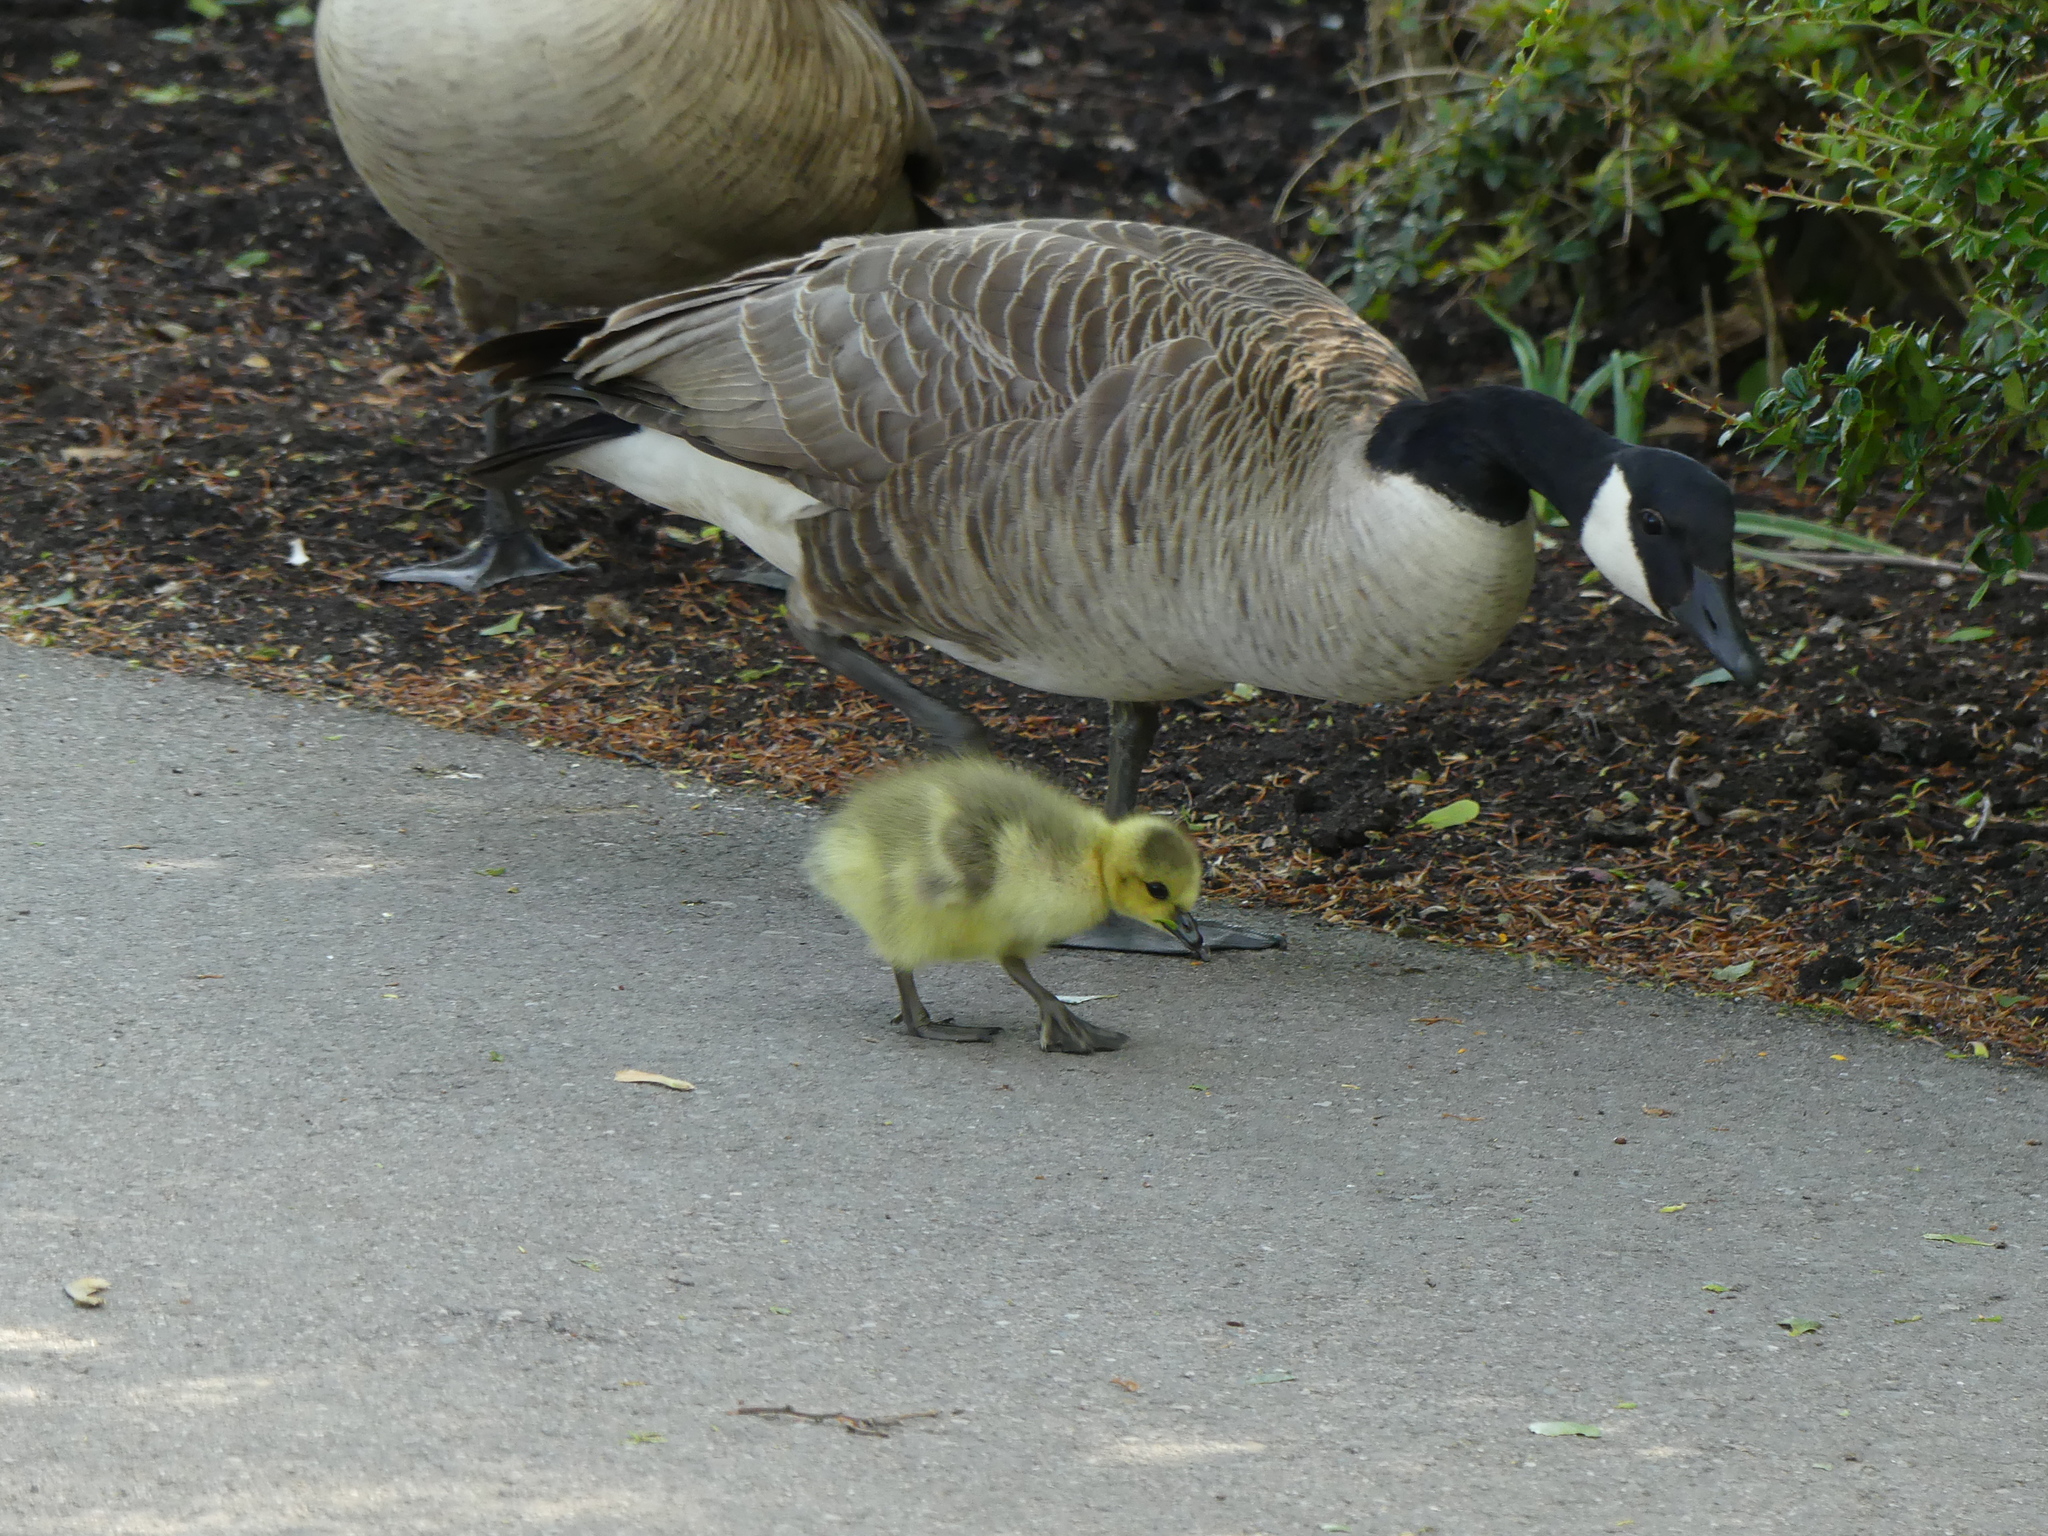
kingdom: Animalia
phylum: Chordata
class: Aves
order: Anseriformes
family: Anatidae
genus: Branta
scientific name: Branta canadensis
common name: Canada goose
